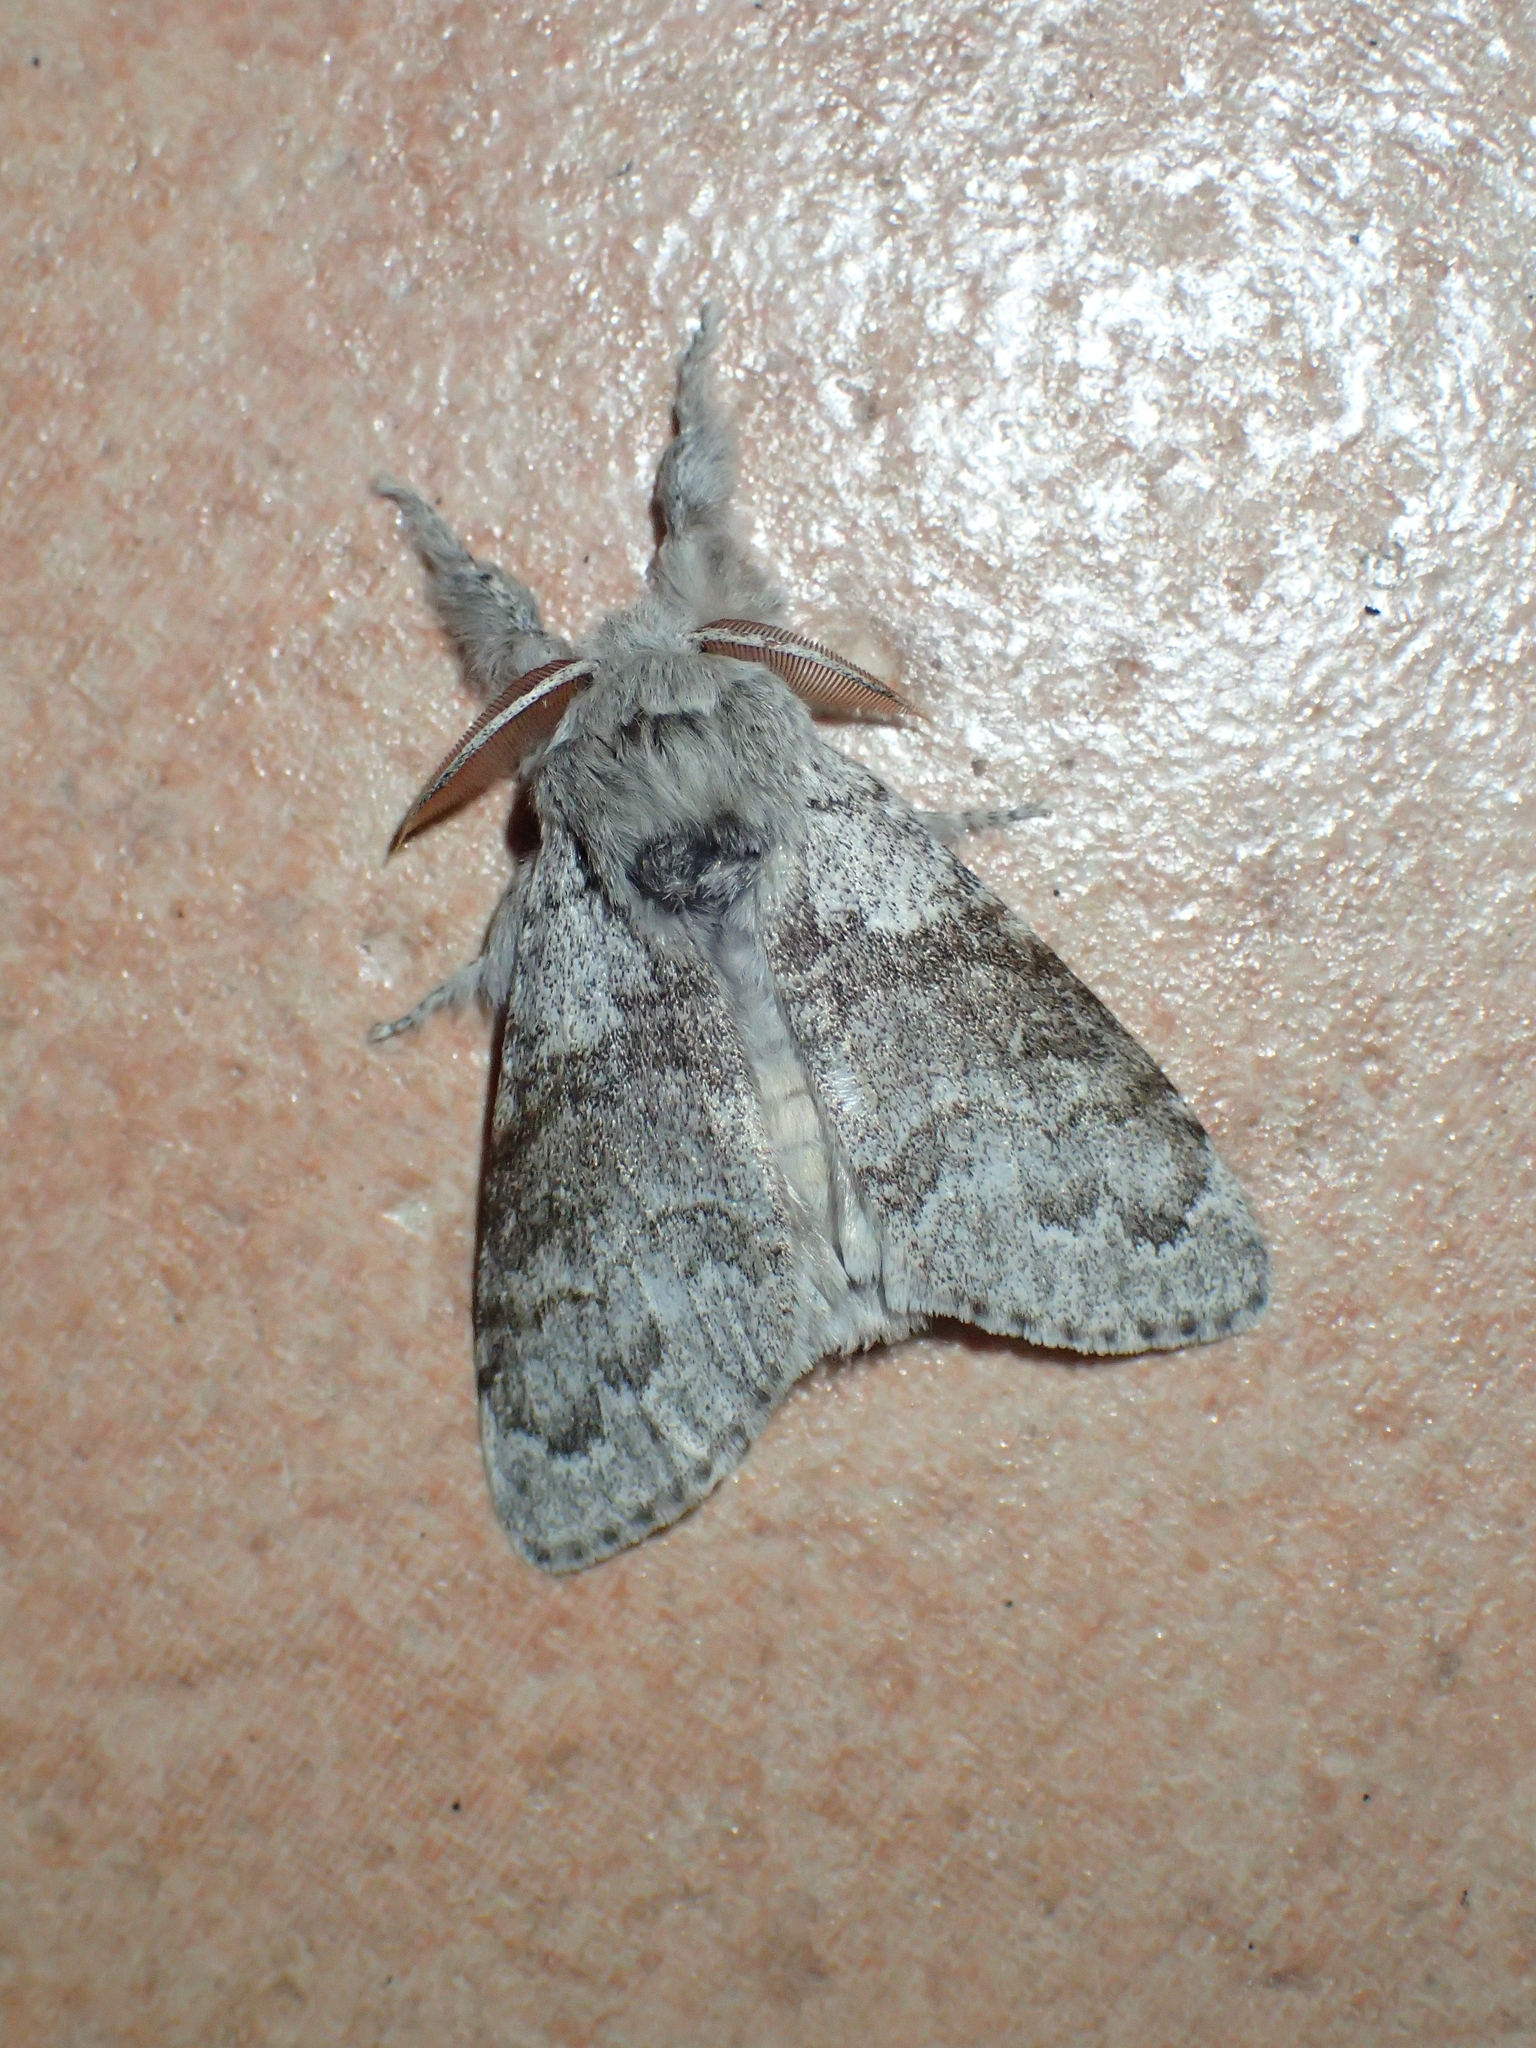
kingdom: Animalia
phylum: Arthropoda
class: Insecta
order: Lepidoptera
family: Erebidae
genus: Calliteara
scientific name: Calliteara pudibunda
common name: Pale tussock
